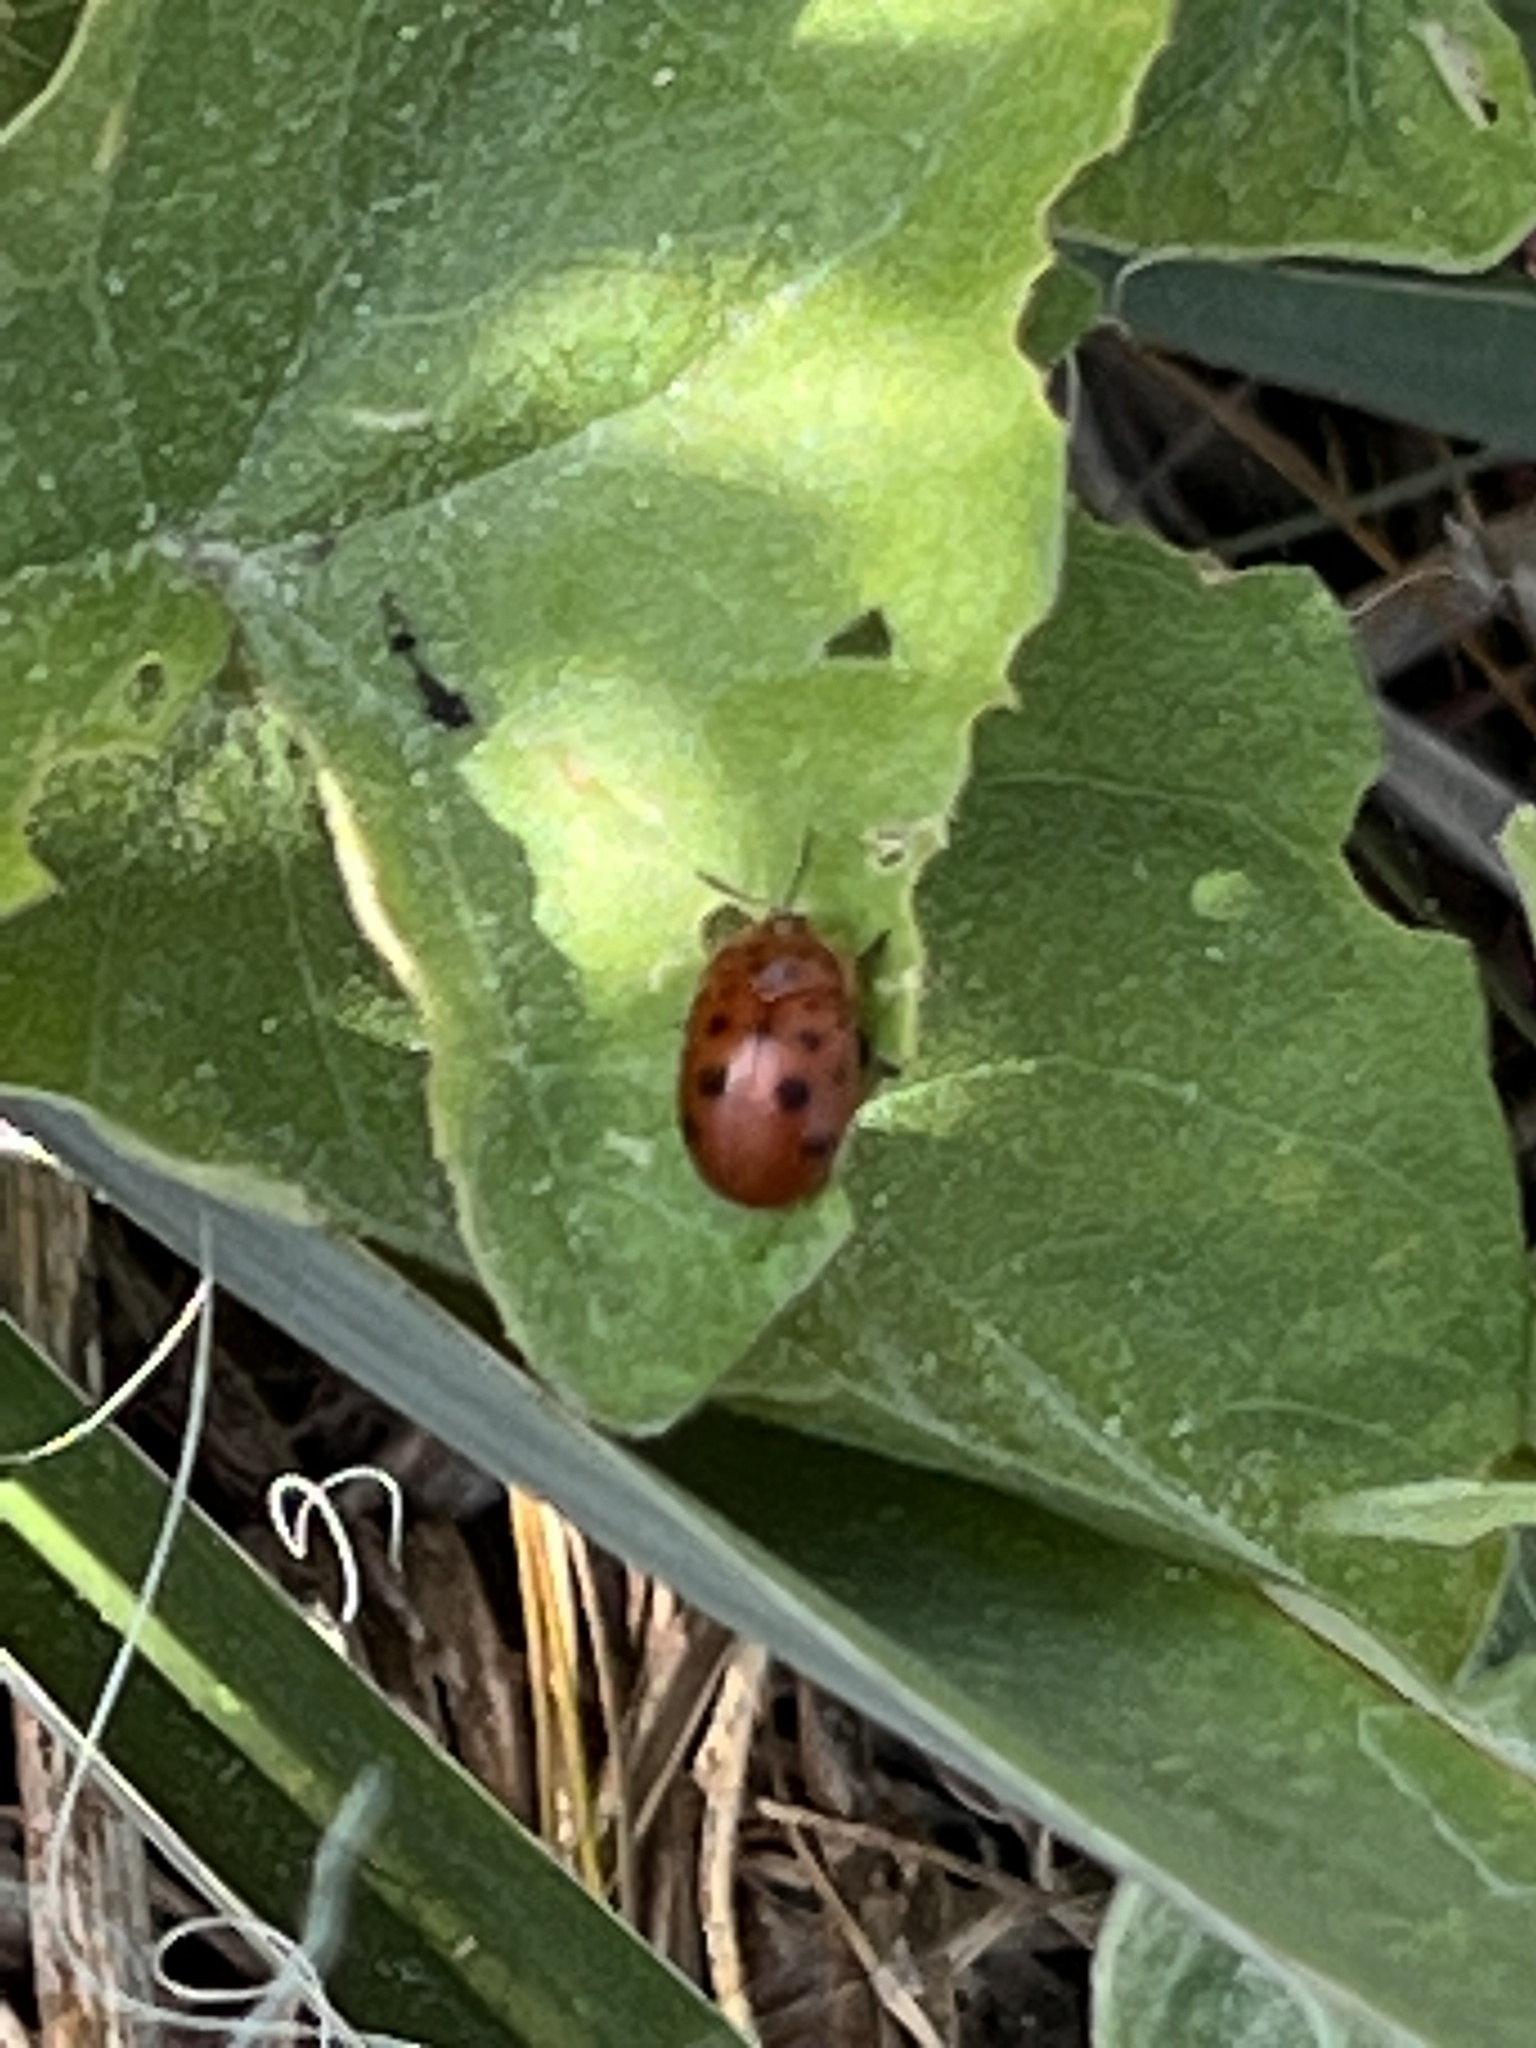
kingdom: Animalia
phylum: Arthropoda
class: Insecta
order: Coleoptera
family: Chrysomelidae
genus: Chelymorpha
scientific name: Chelymorpha cassidea
